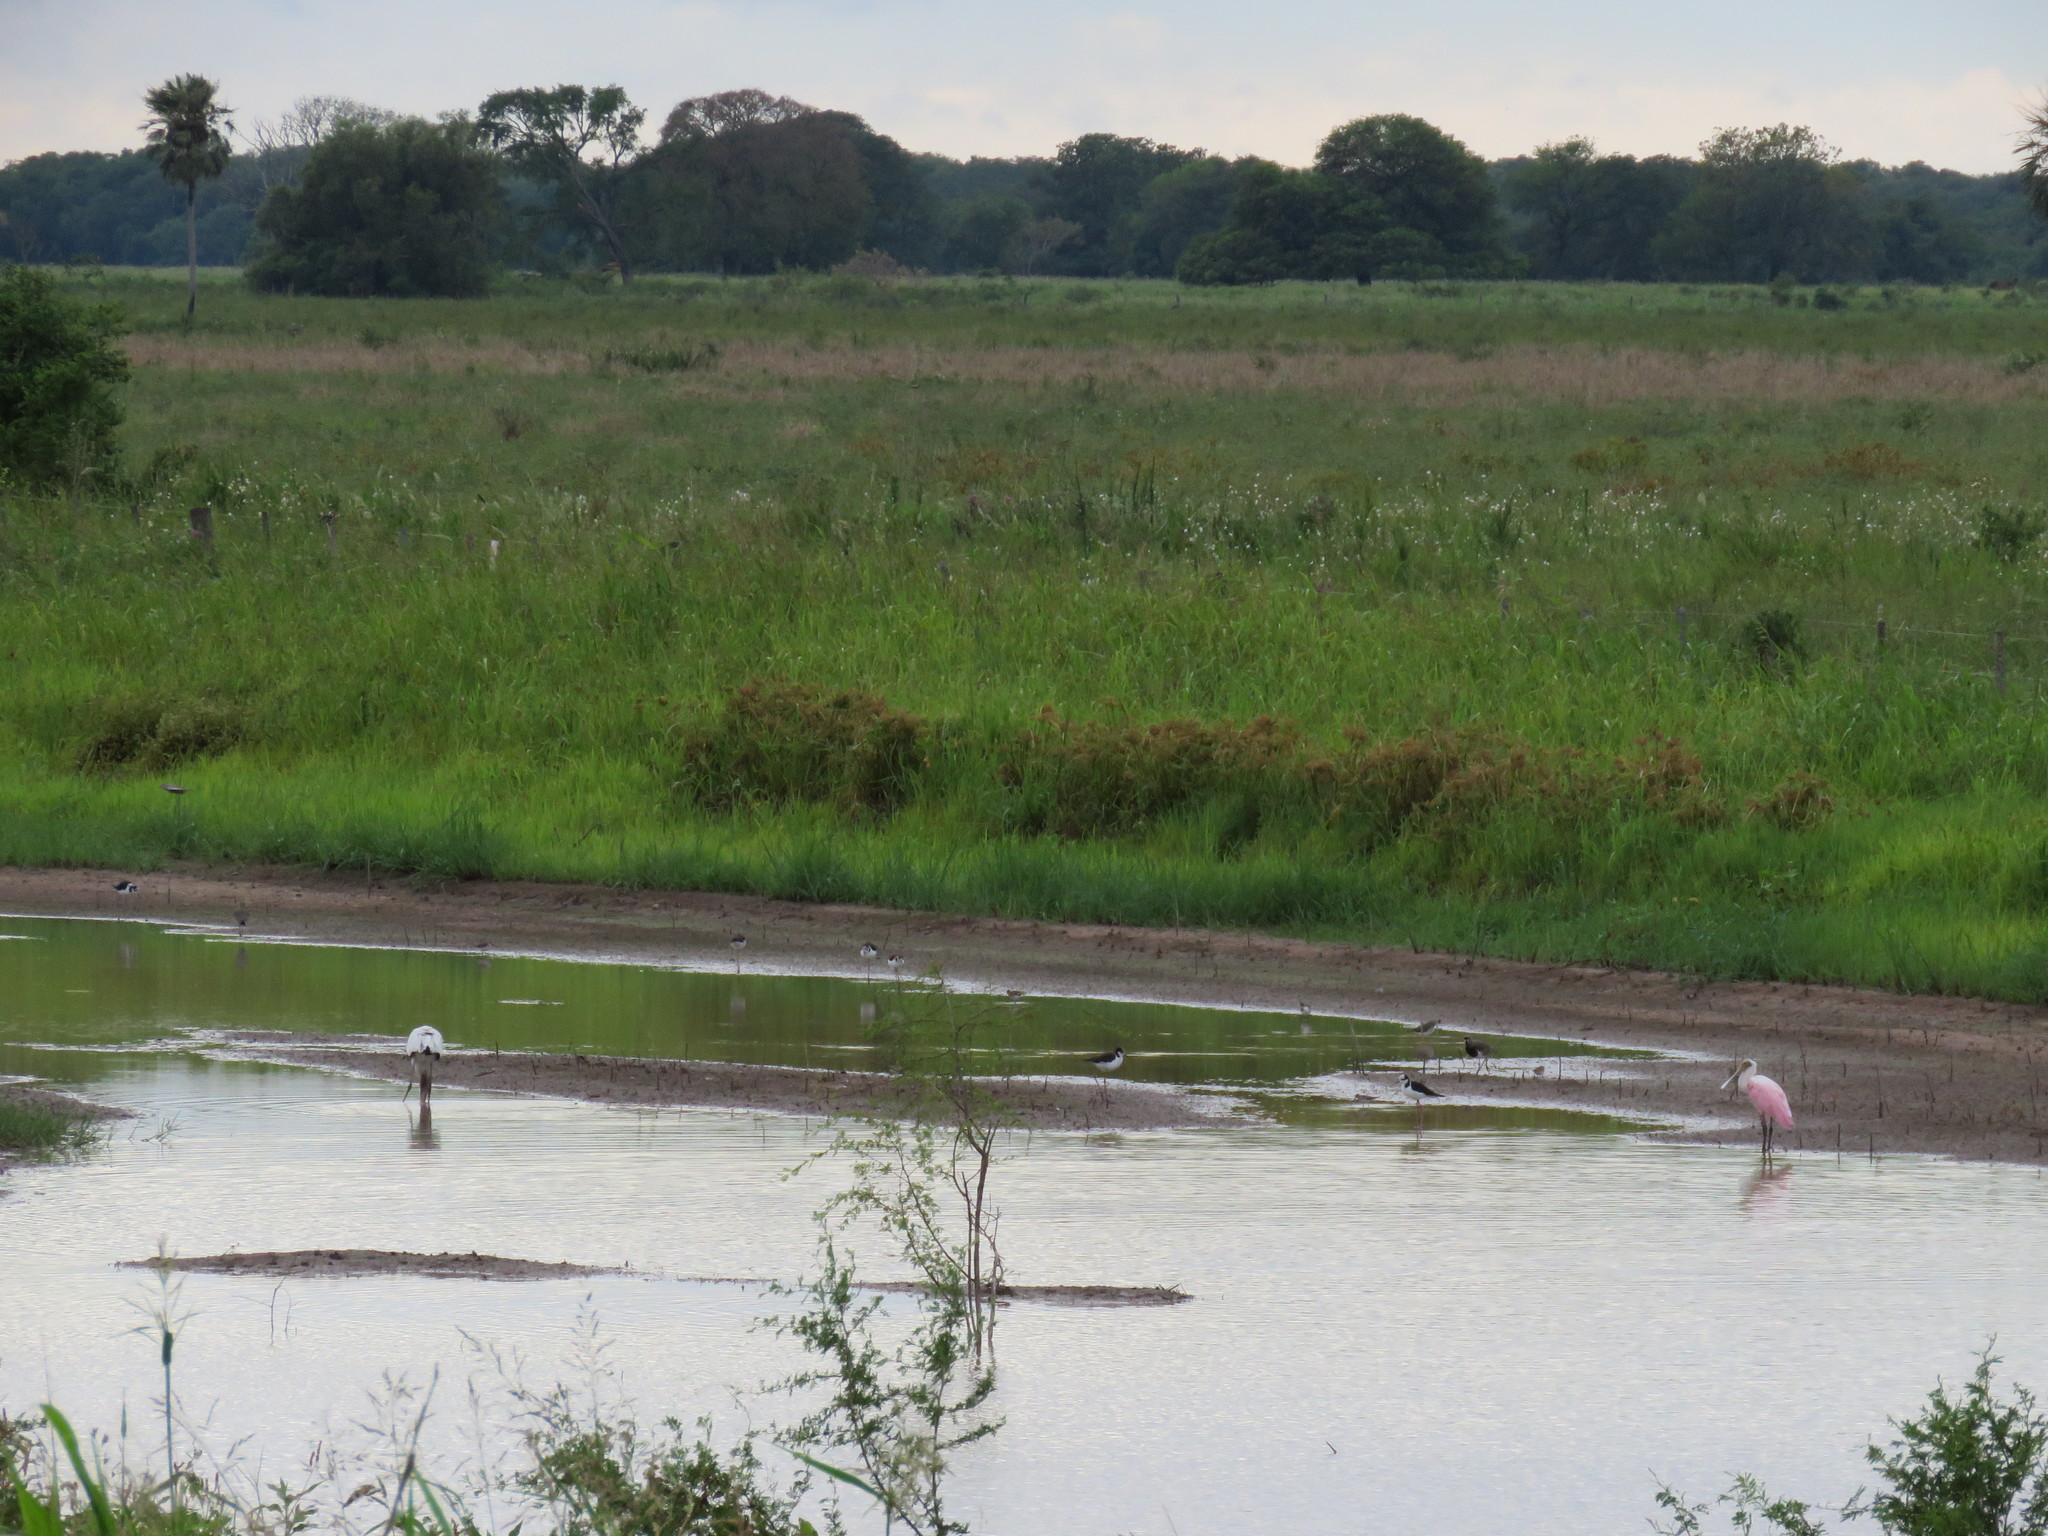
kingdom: Animalia
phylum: Chordata
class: Aves
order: Pelecaniformes
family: Threskiornithidae
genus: Platalea
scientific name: Platalea ajaja
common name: Roseate spoonbill
